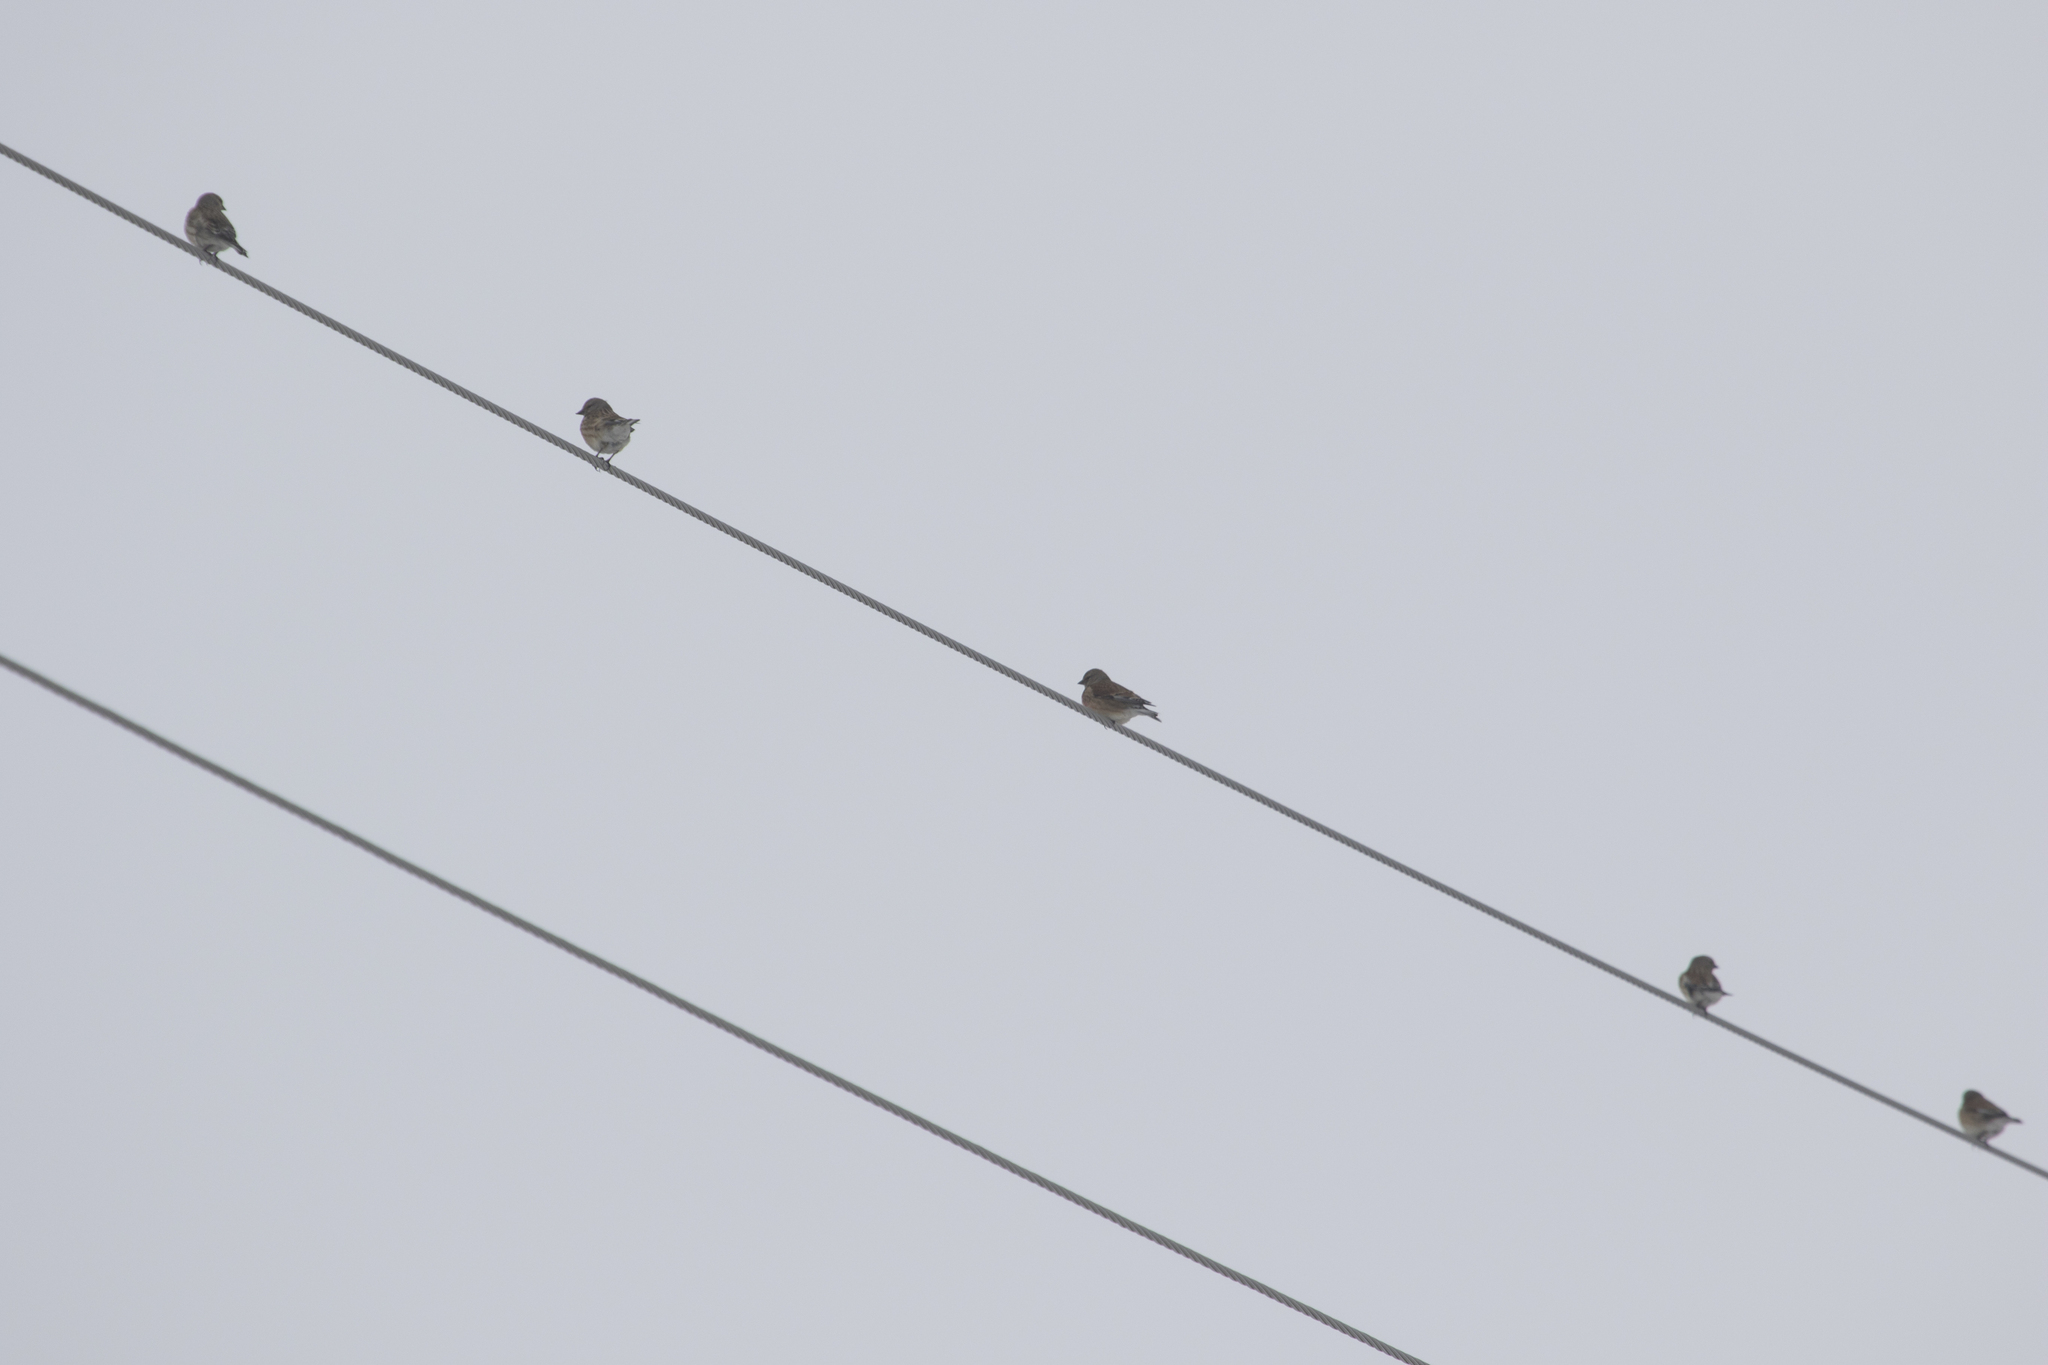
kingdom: Animalia
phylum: Chordata
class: Aves
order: Passeriformes
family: Fringillidae
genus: Linaria
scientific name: Linaria cannabina
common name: Common linnet
